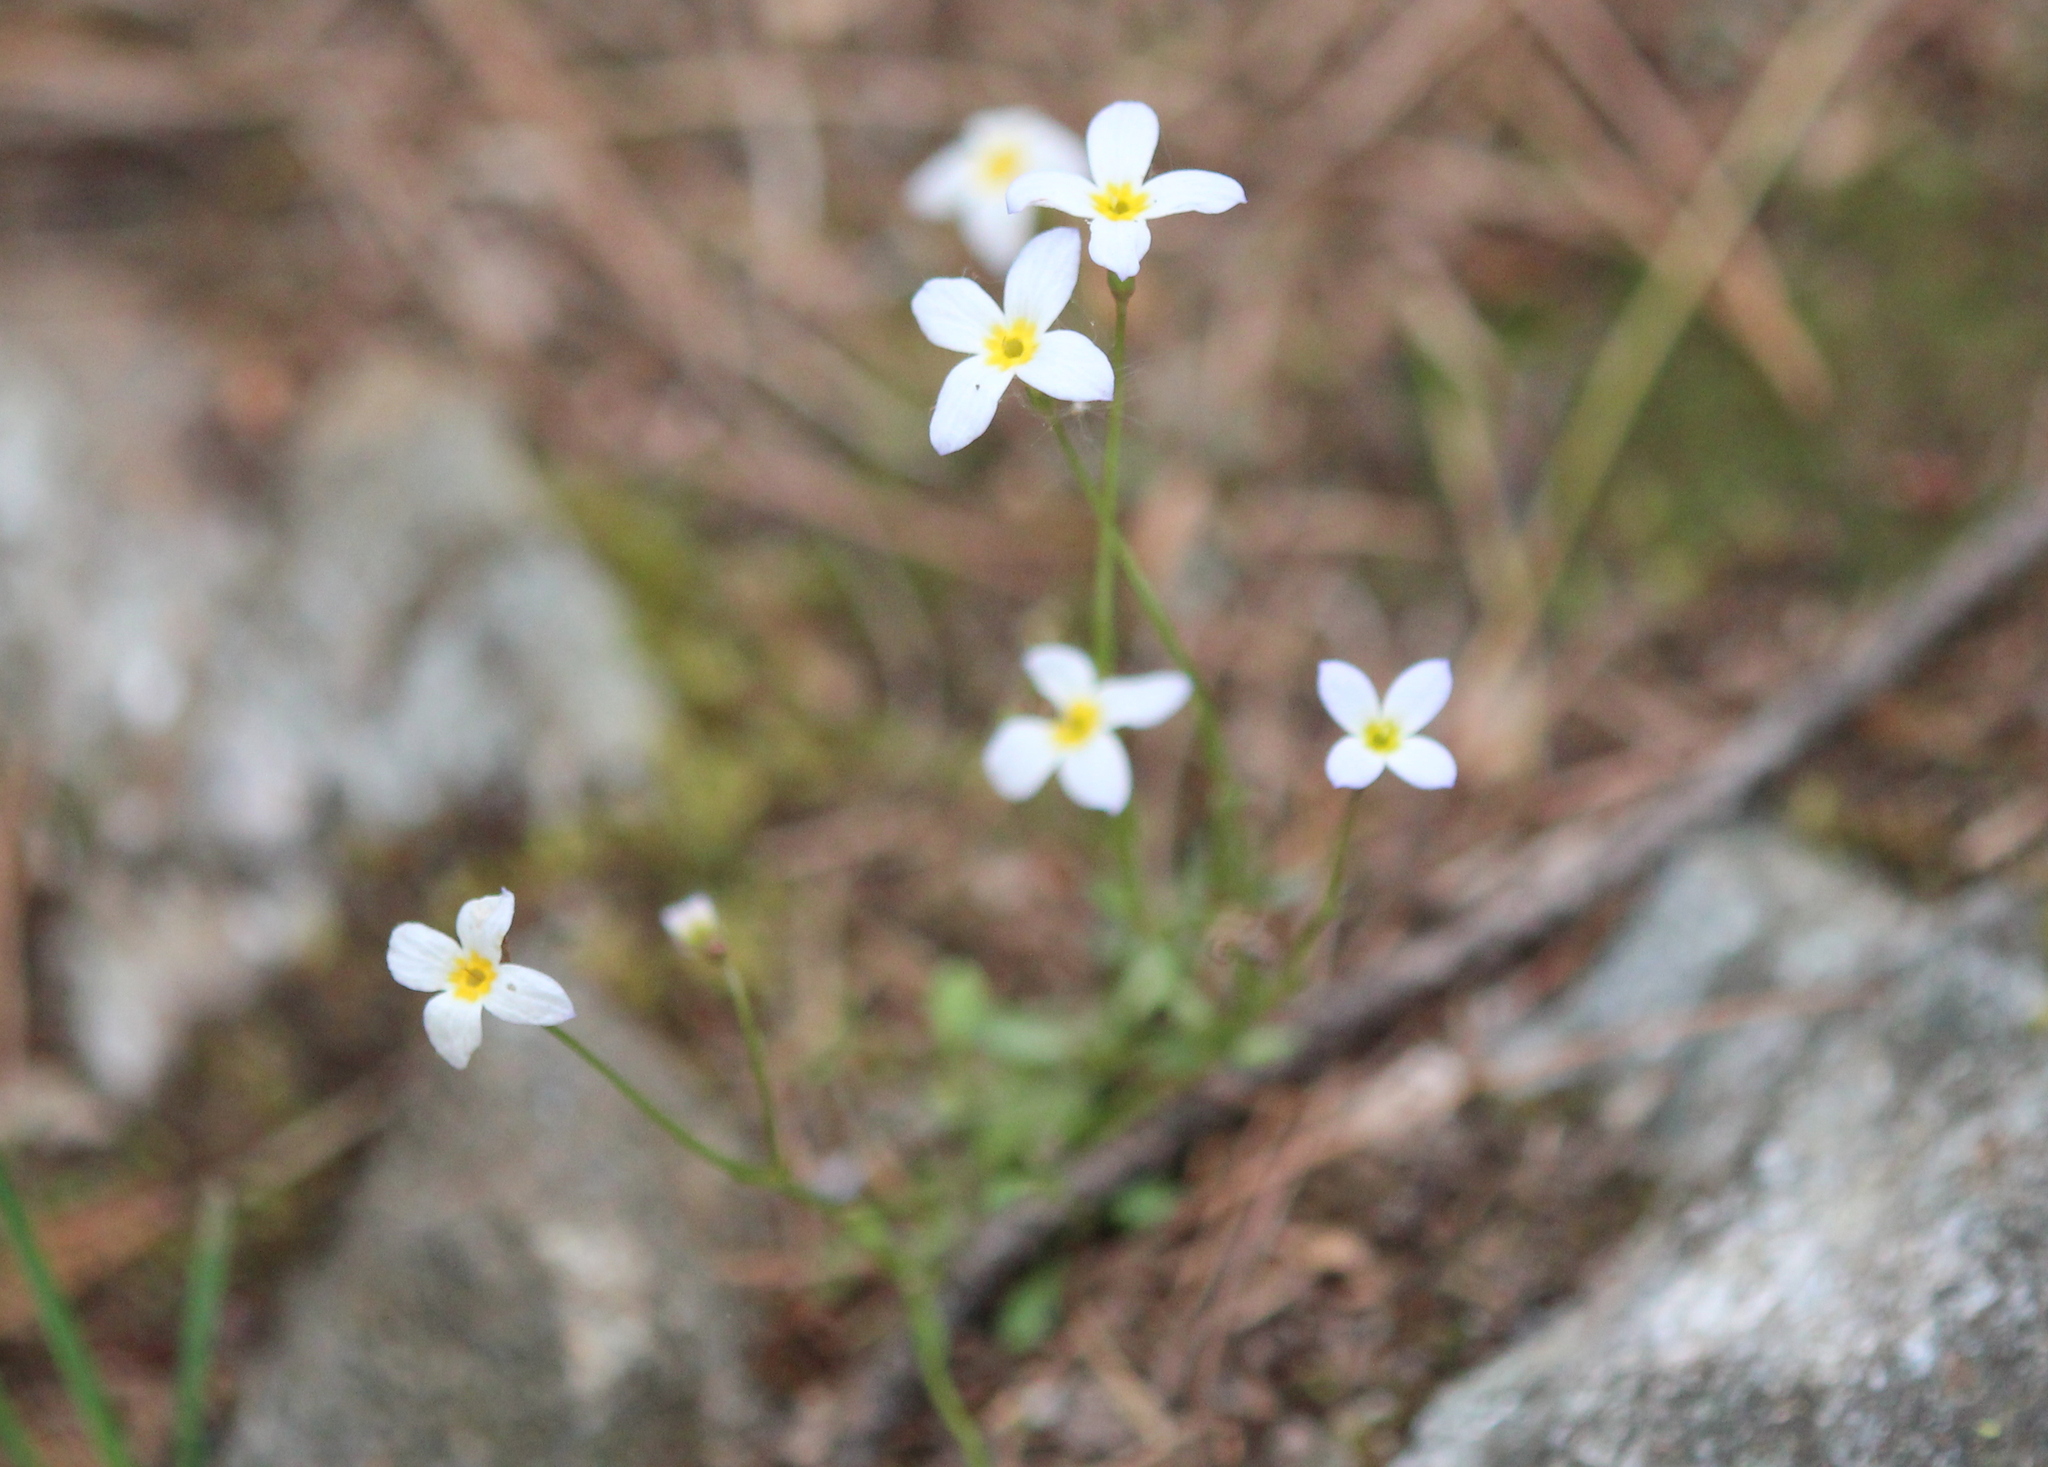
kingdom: Plantae
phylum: Tracheophyta
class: Magnoliopsida
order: Gentianales
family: Rubiaceae
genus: Houstonia
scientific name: Houstonia caerulea
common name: Bluets
